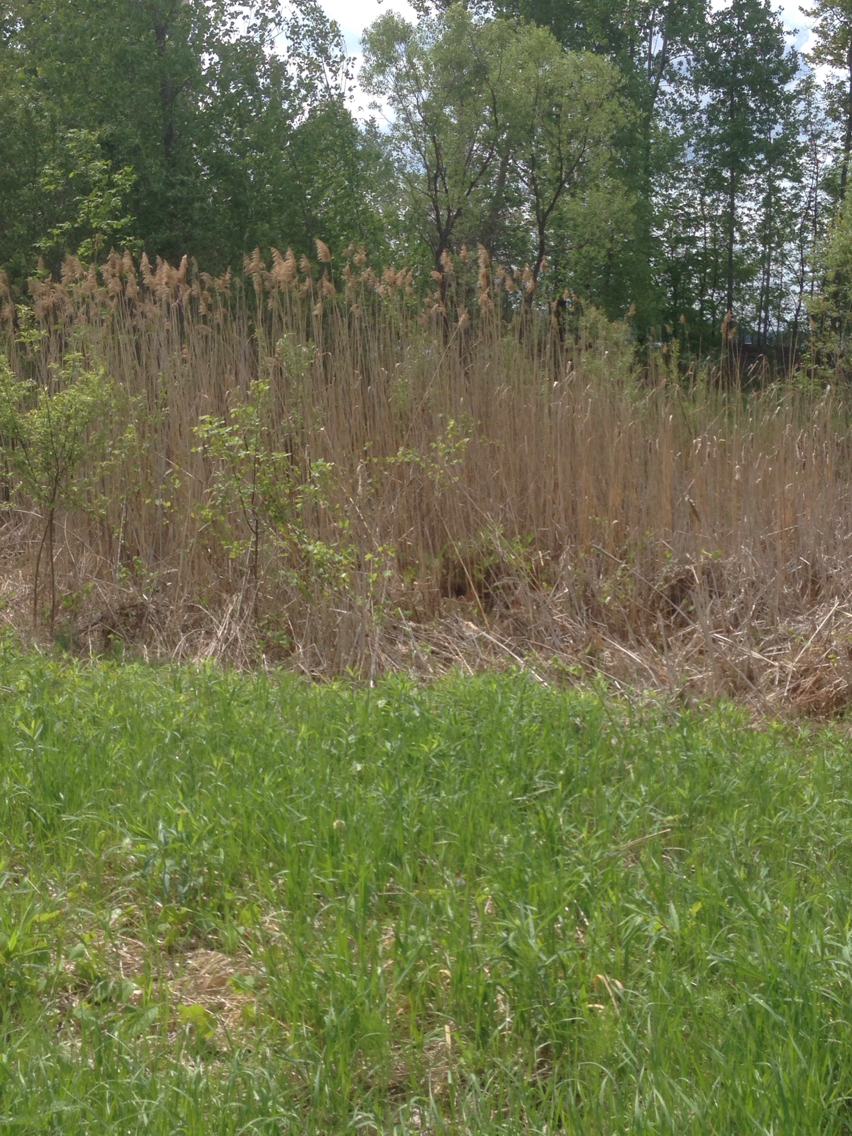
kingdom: Plantae
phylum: Tracheophyta
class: Liliopsida
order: Poales
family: Poaceae
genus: Phragmites
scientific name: Phragmites australis
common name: Common reed
